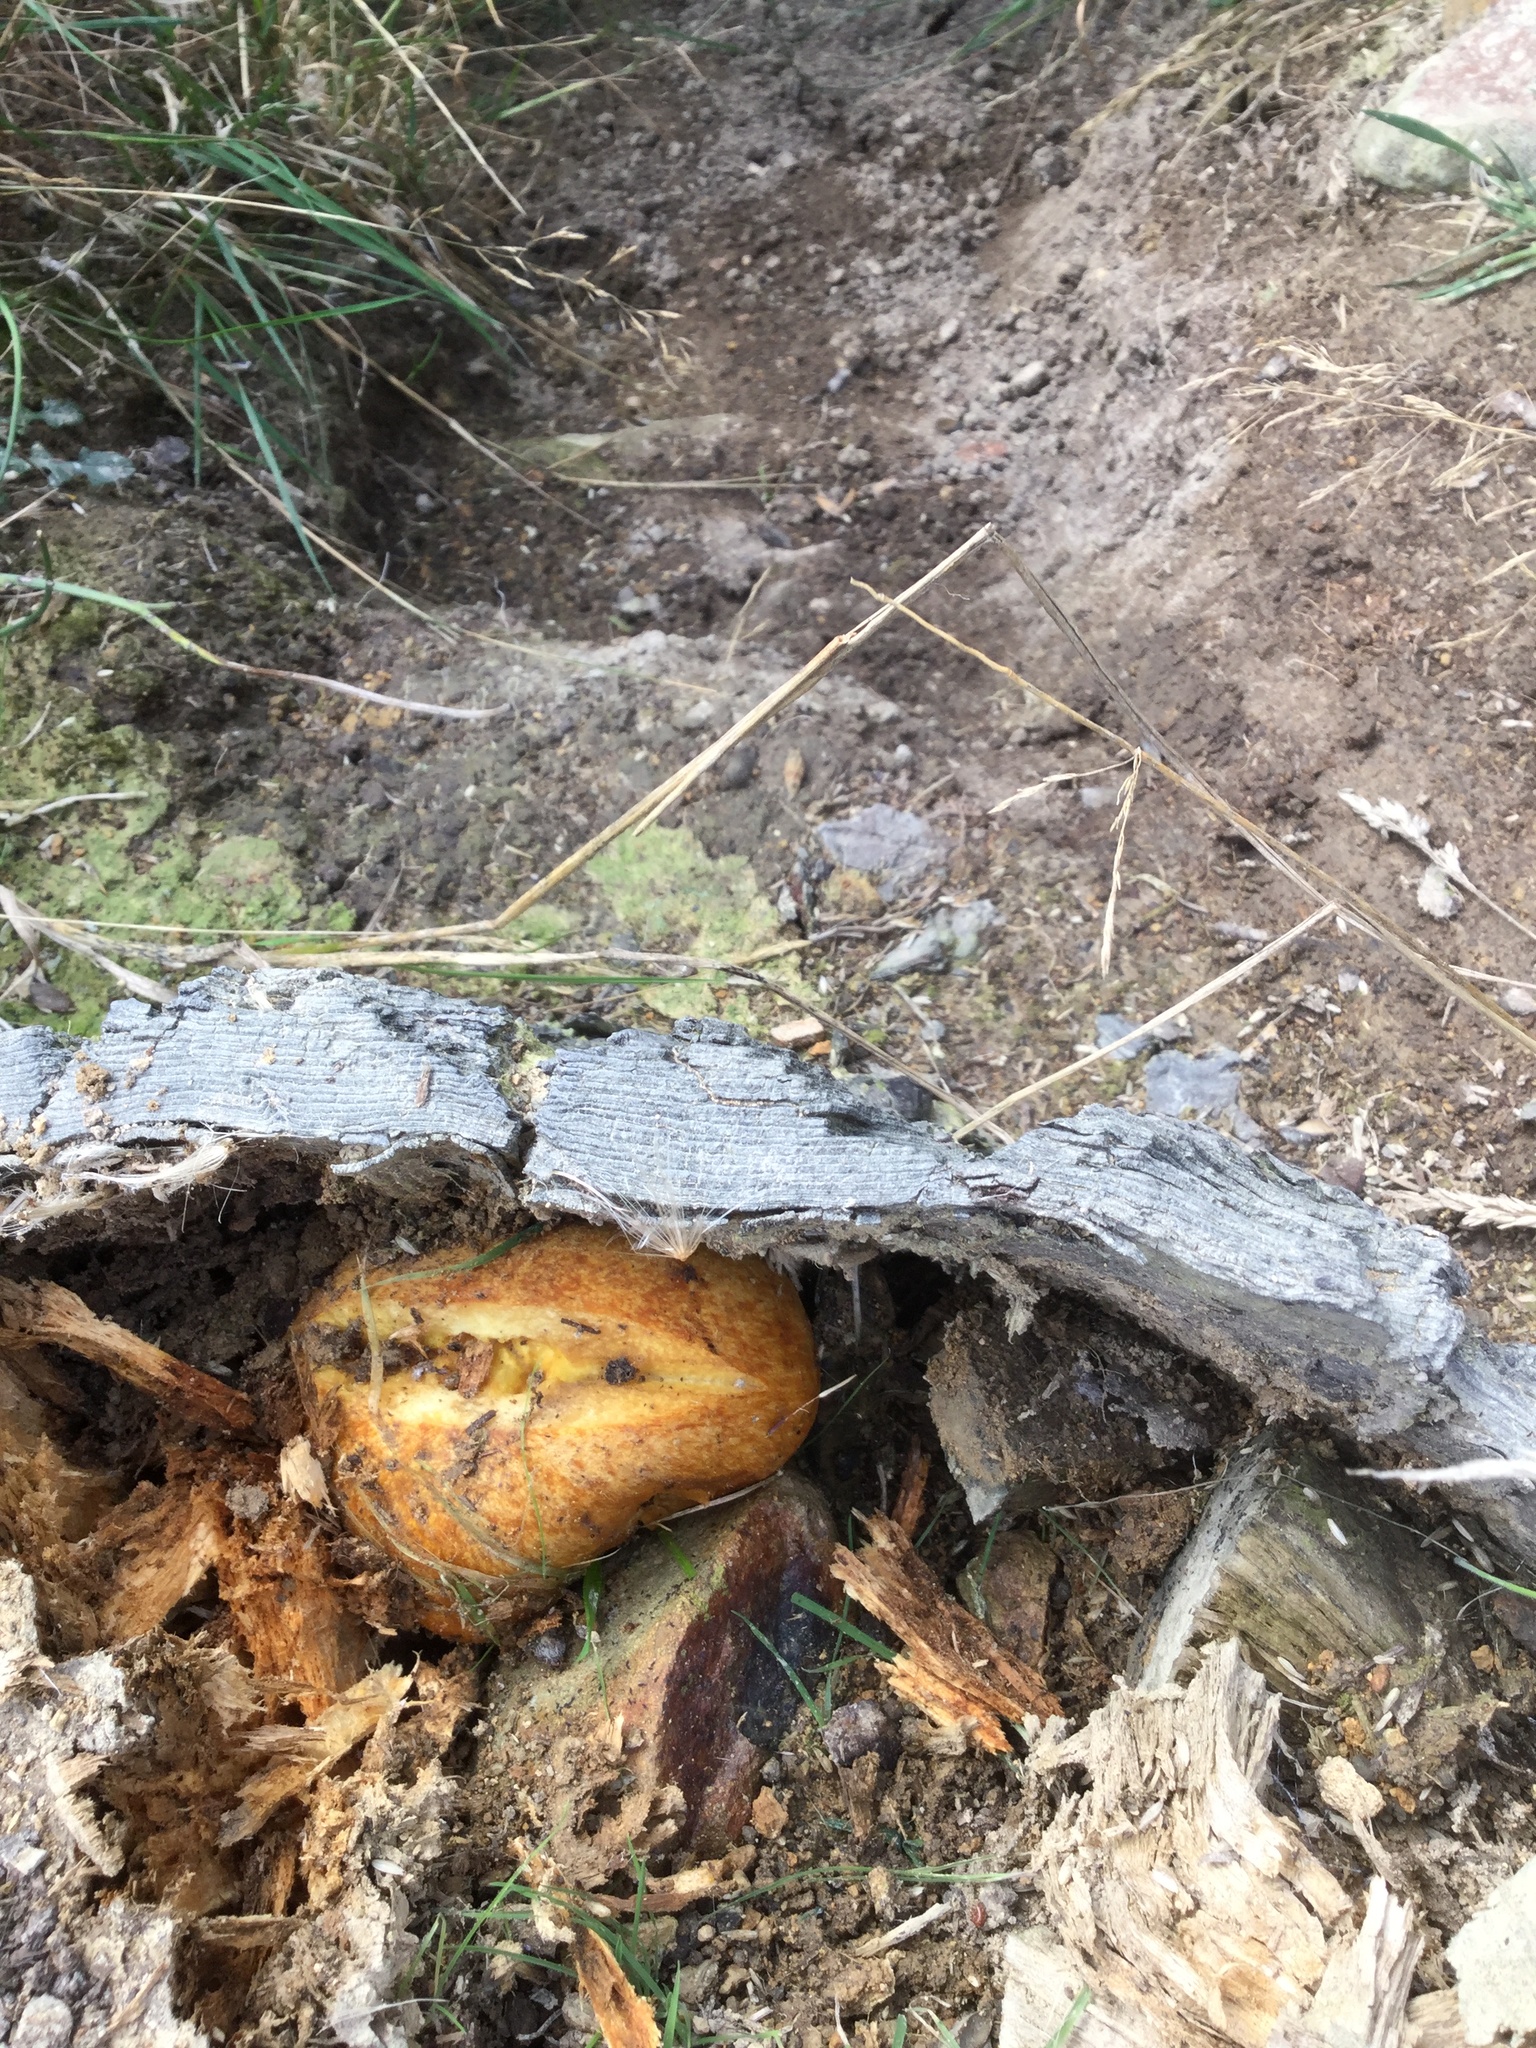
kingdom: Fungi
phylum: Basidiomycota
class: Agaricomycetes
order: Agaricales
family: Hymenogastraceae
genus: Gymnopilus
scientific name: Gymnopilus junonius
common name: Spectacular rustgill
